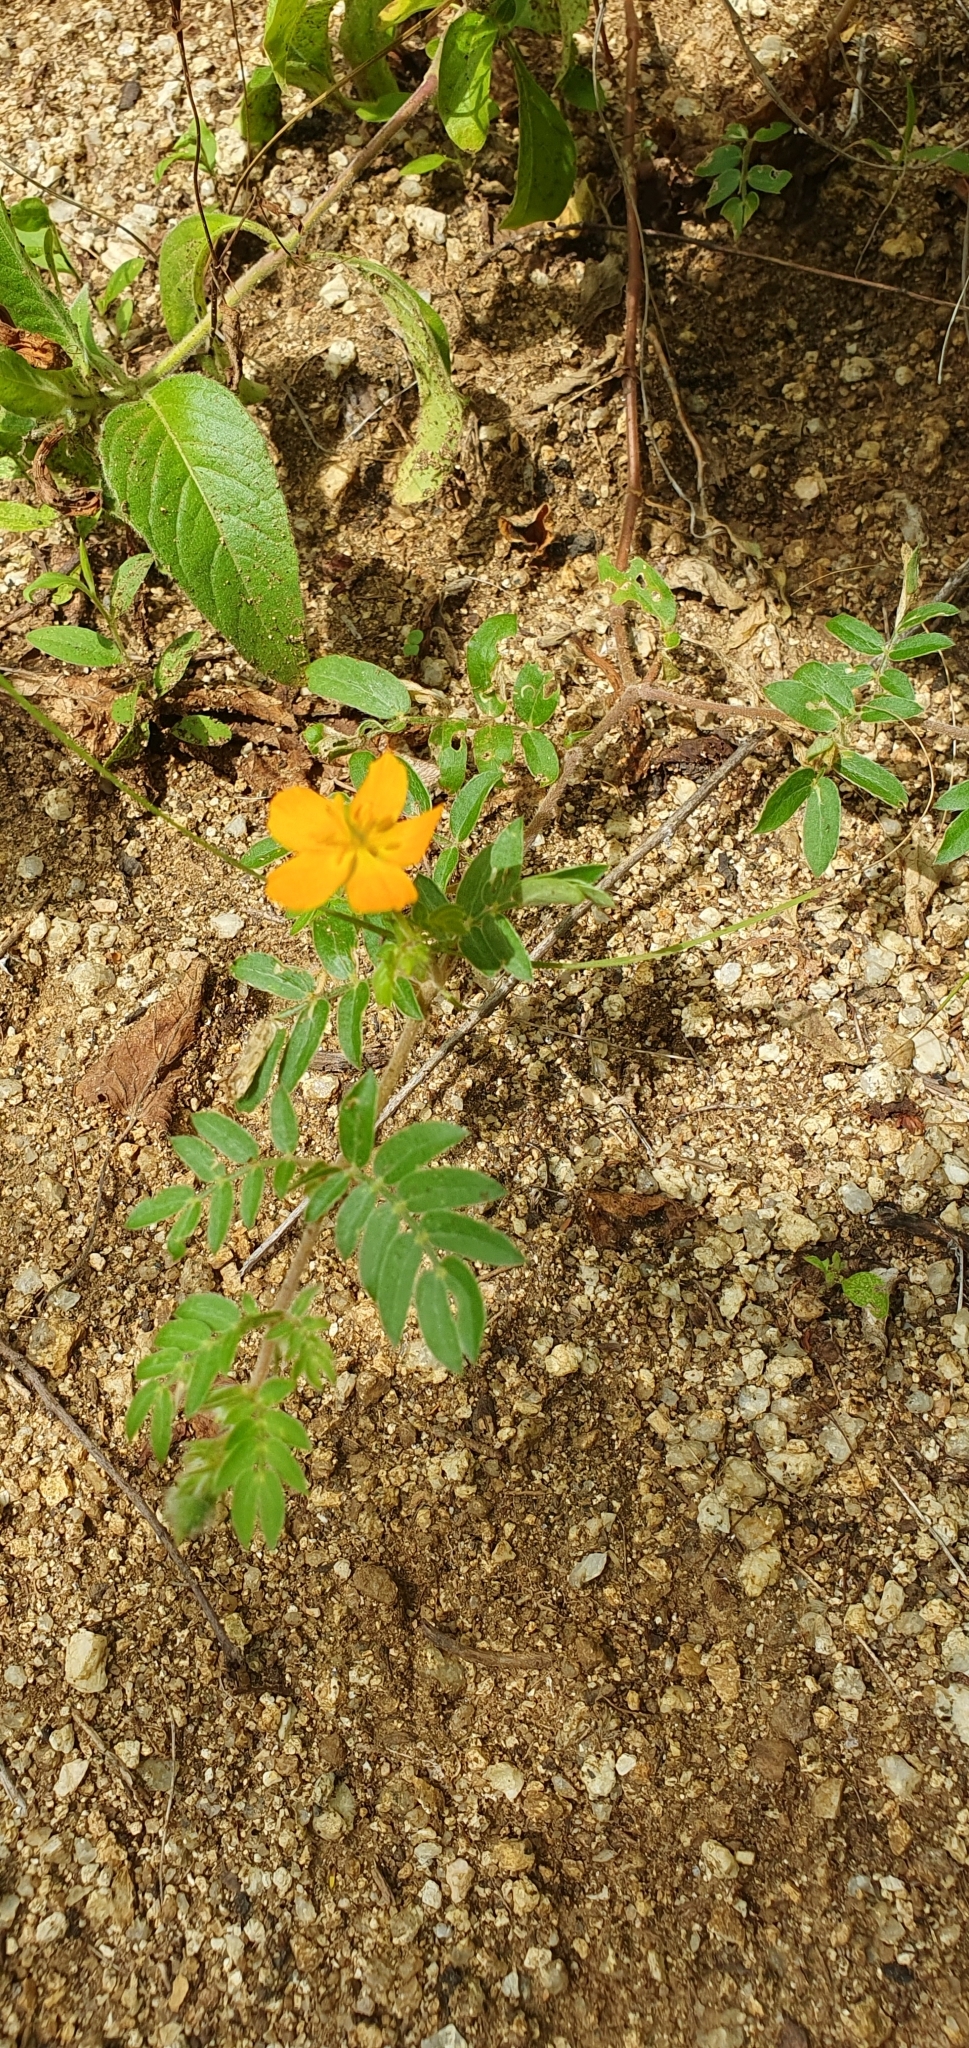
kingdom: Plantae
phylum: Tracheophyta
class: Magnoliopsida
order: Zygophyllales
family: Zygophyllaceae
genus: Kallstroemia
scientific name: Kallstroemia peninsularis
